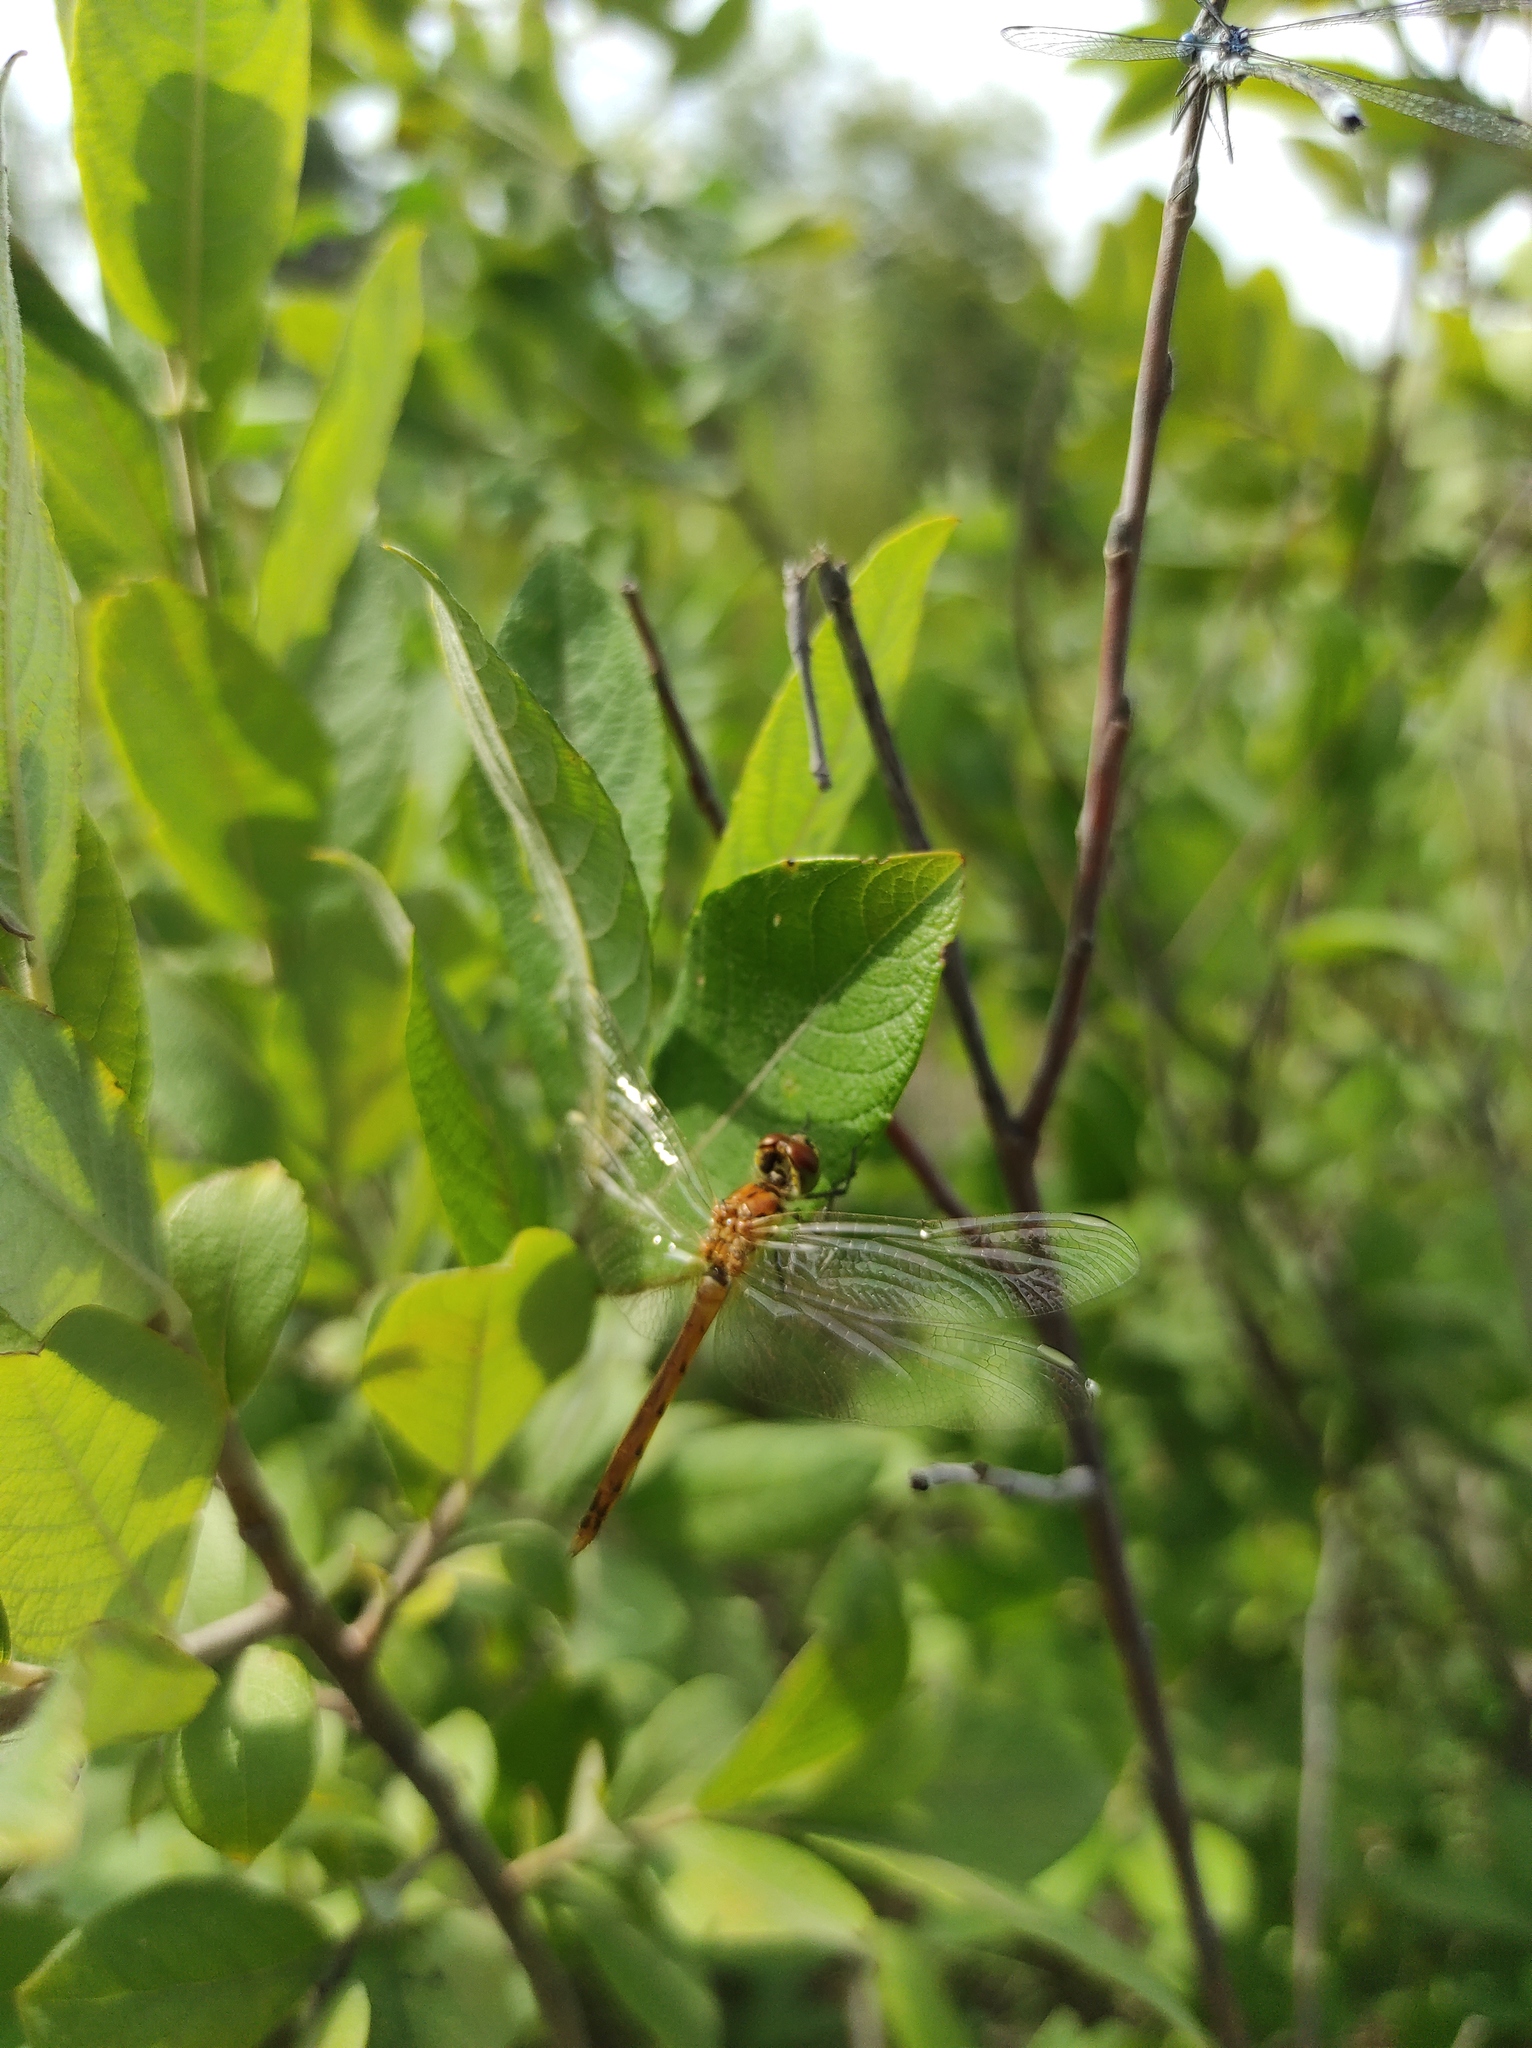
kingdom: Animalia
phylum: Arthropoda
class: Insecta
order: Odonata
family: Libellulidae
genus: Sympetrum
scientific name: Sympetrum depressiusculum
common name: Spotted darter
